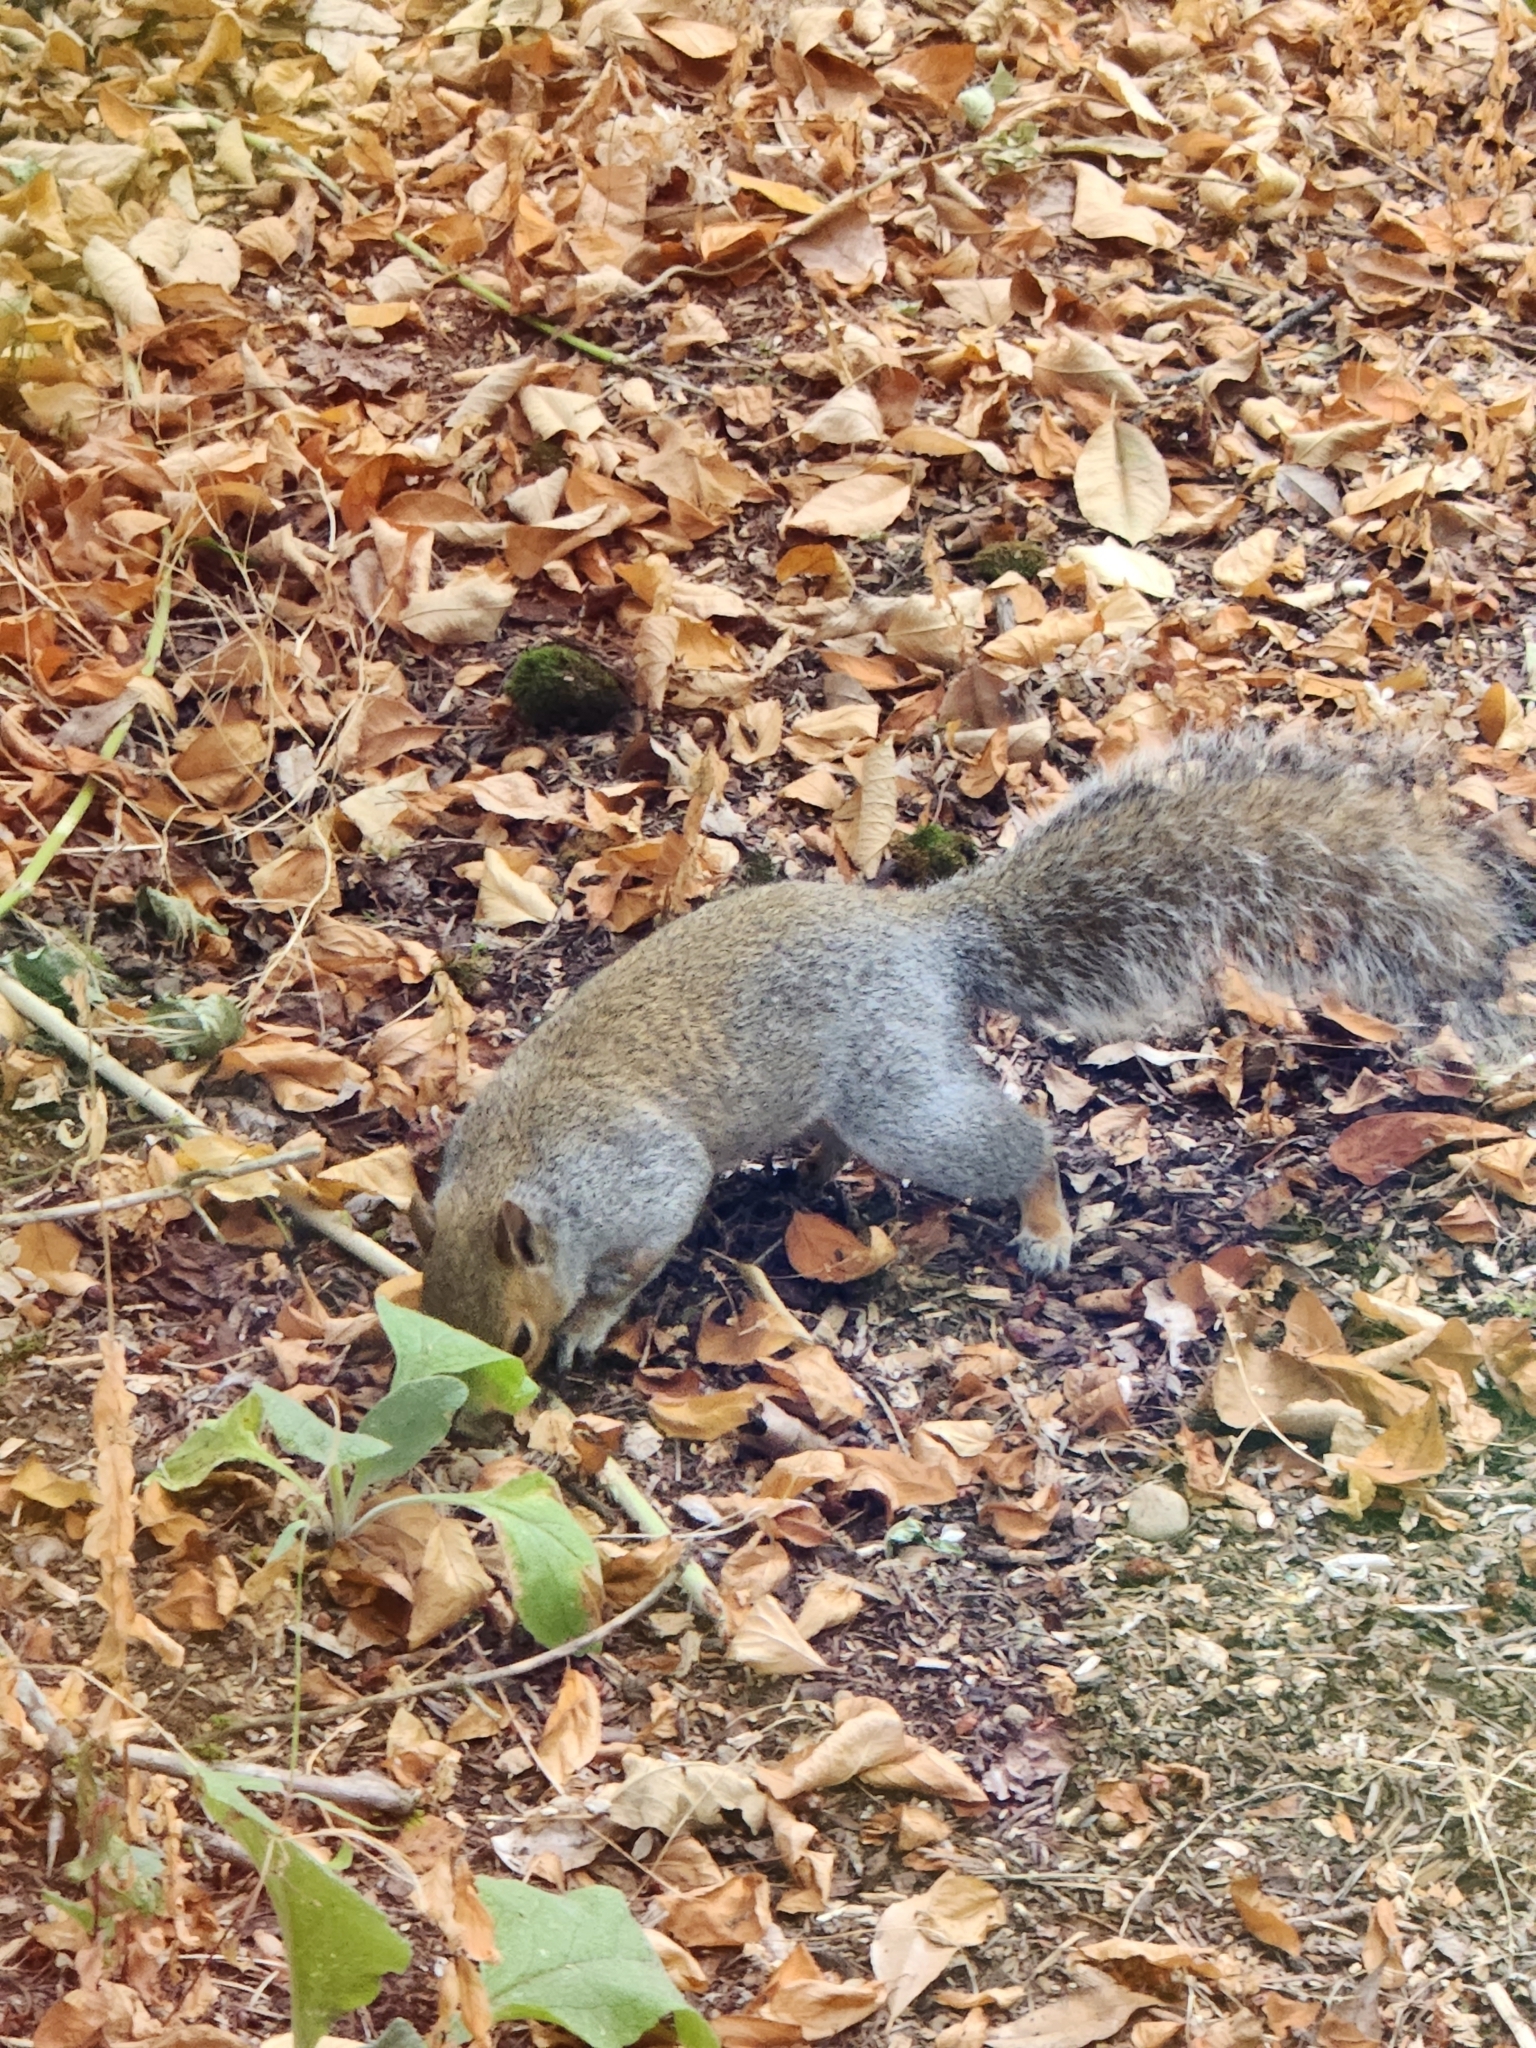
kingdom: Animalia
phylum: Chordata
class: Mammalia
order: Rodentia
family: Sciuridae
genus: Sciurus
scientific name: Sciurus carolinensis
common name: Eastern gray squirrel
